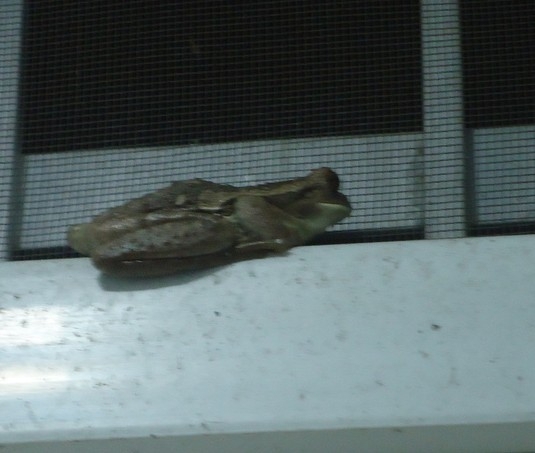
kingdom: Animalia
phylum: Chordata
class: Amphibia
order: Anura
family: Hylidae
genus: Trachycephalus
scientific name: Trachycephalus vermiculatus
